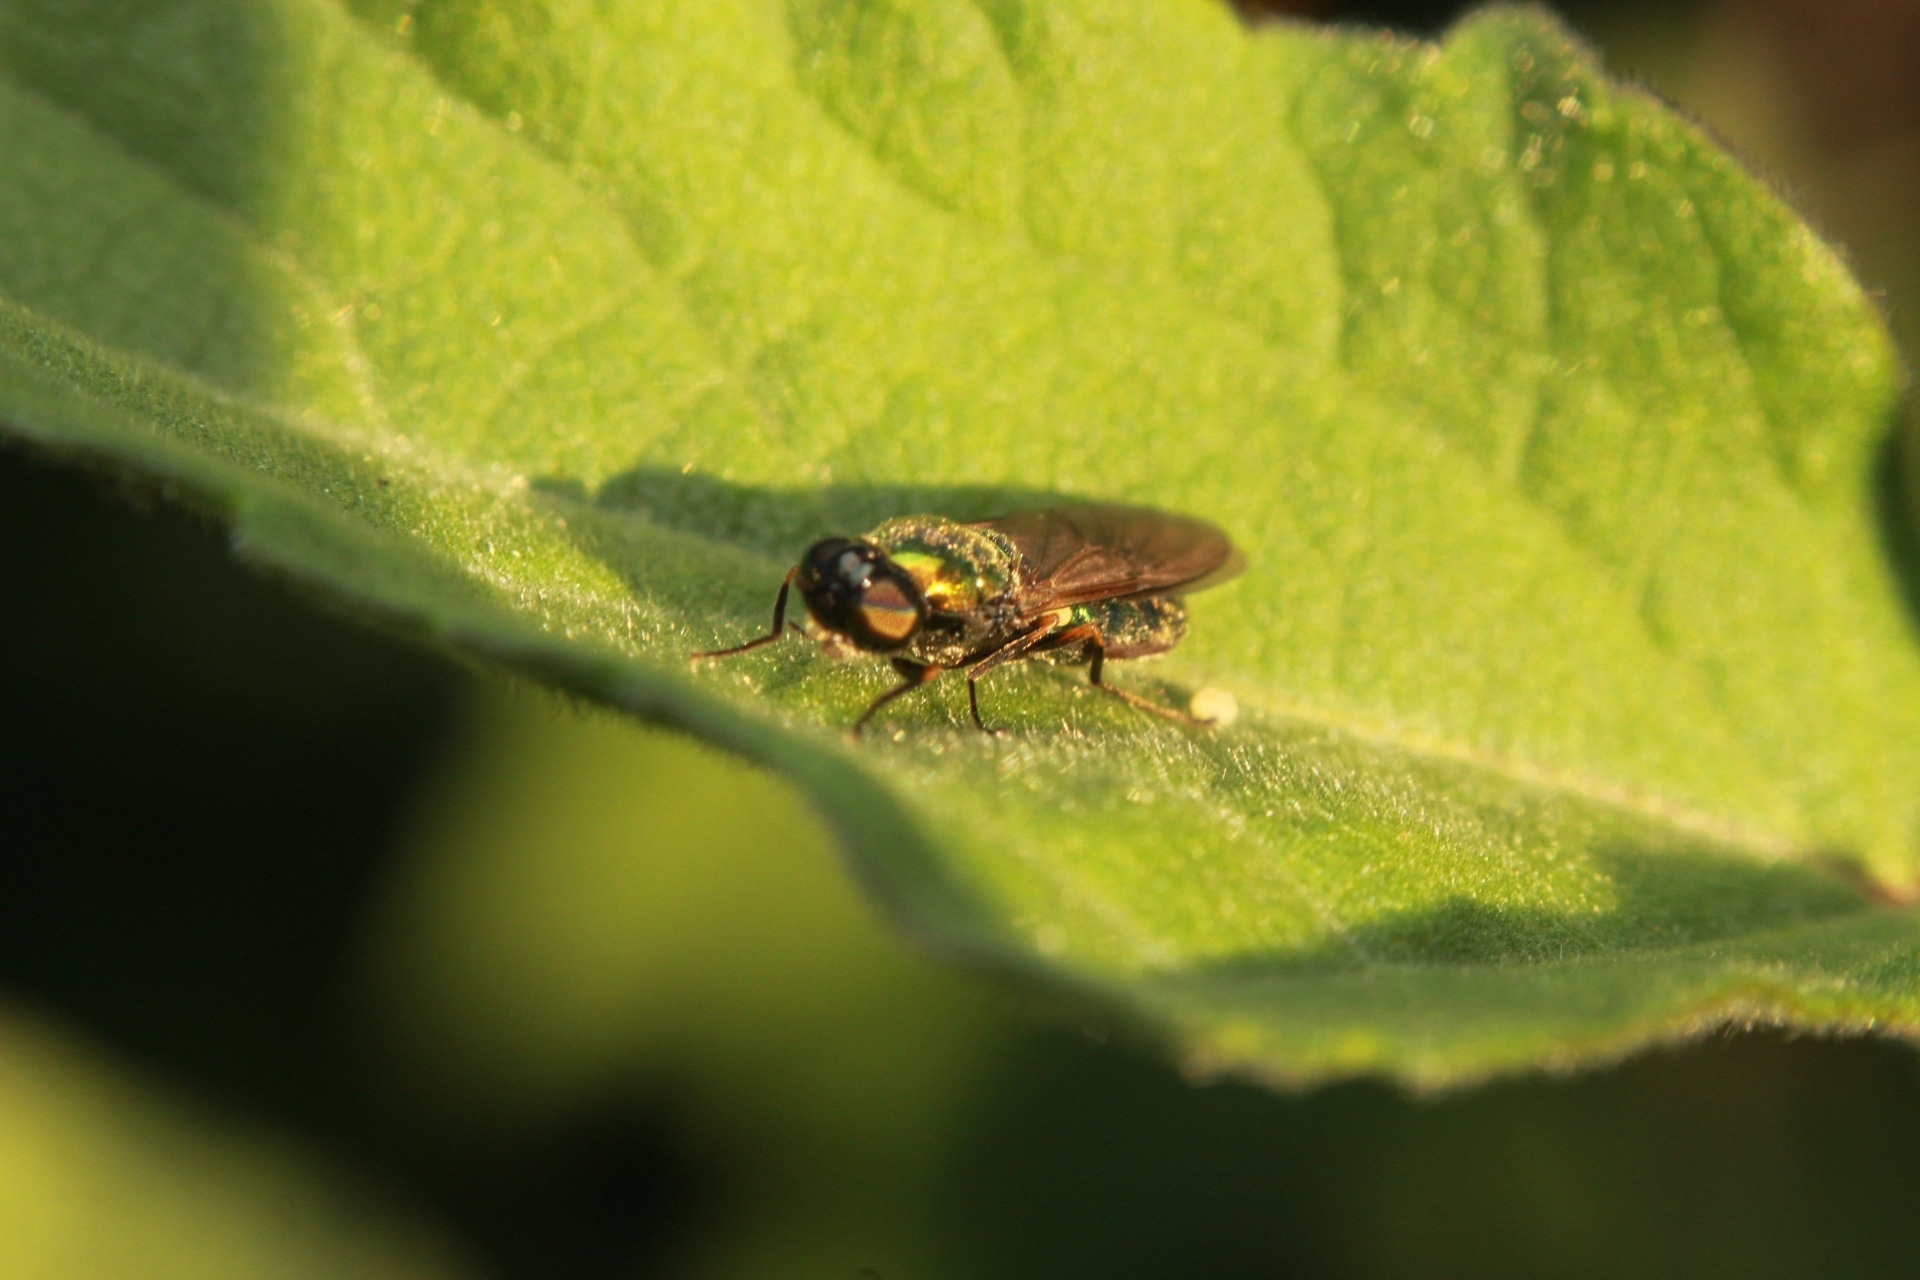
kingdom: Animalia
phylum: Arthropoda
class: Insecta
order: Diptera
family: Stratiomyidae
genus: Chloromyia
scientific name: Chloromyia formosa
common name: Soldier fly
